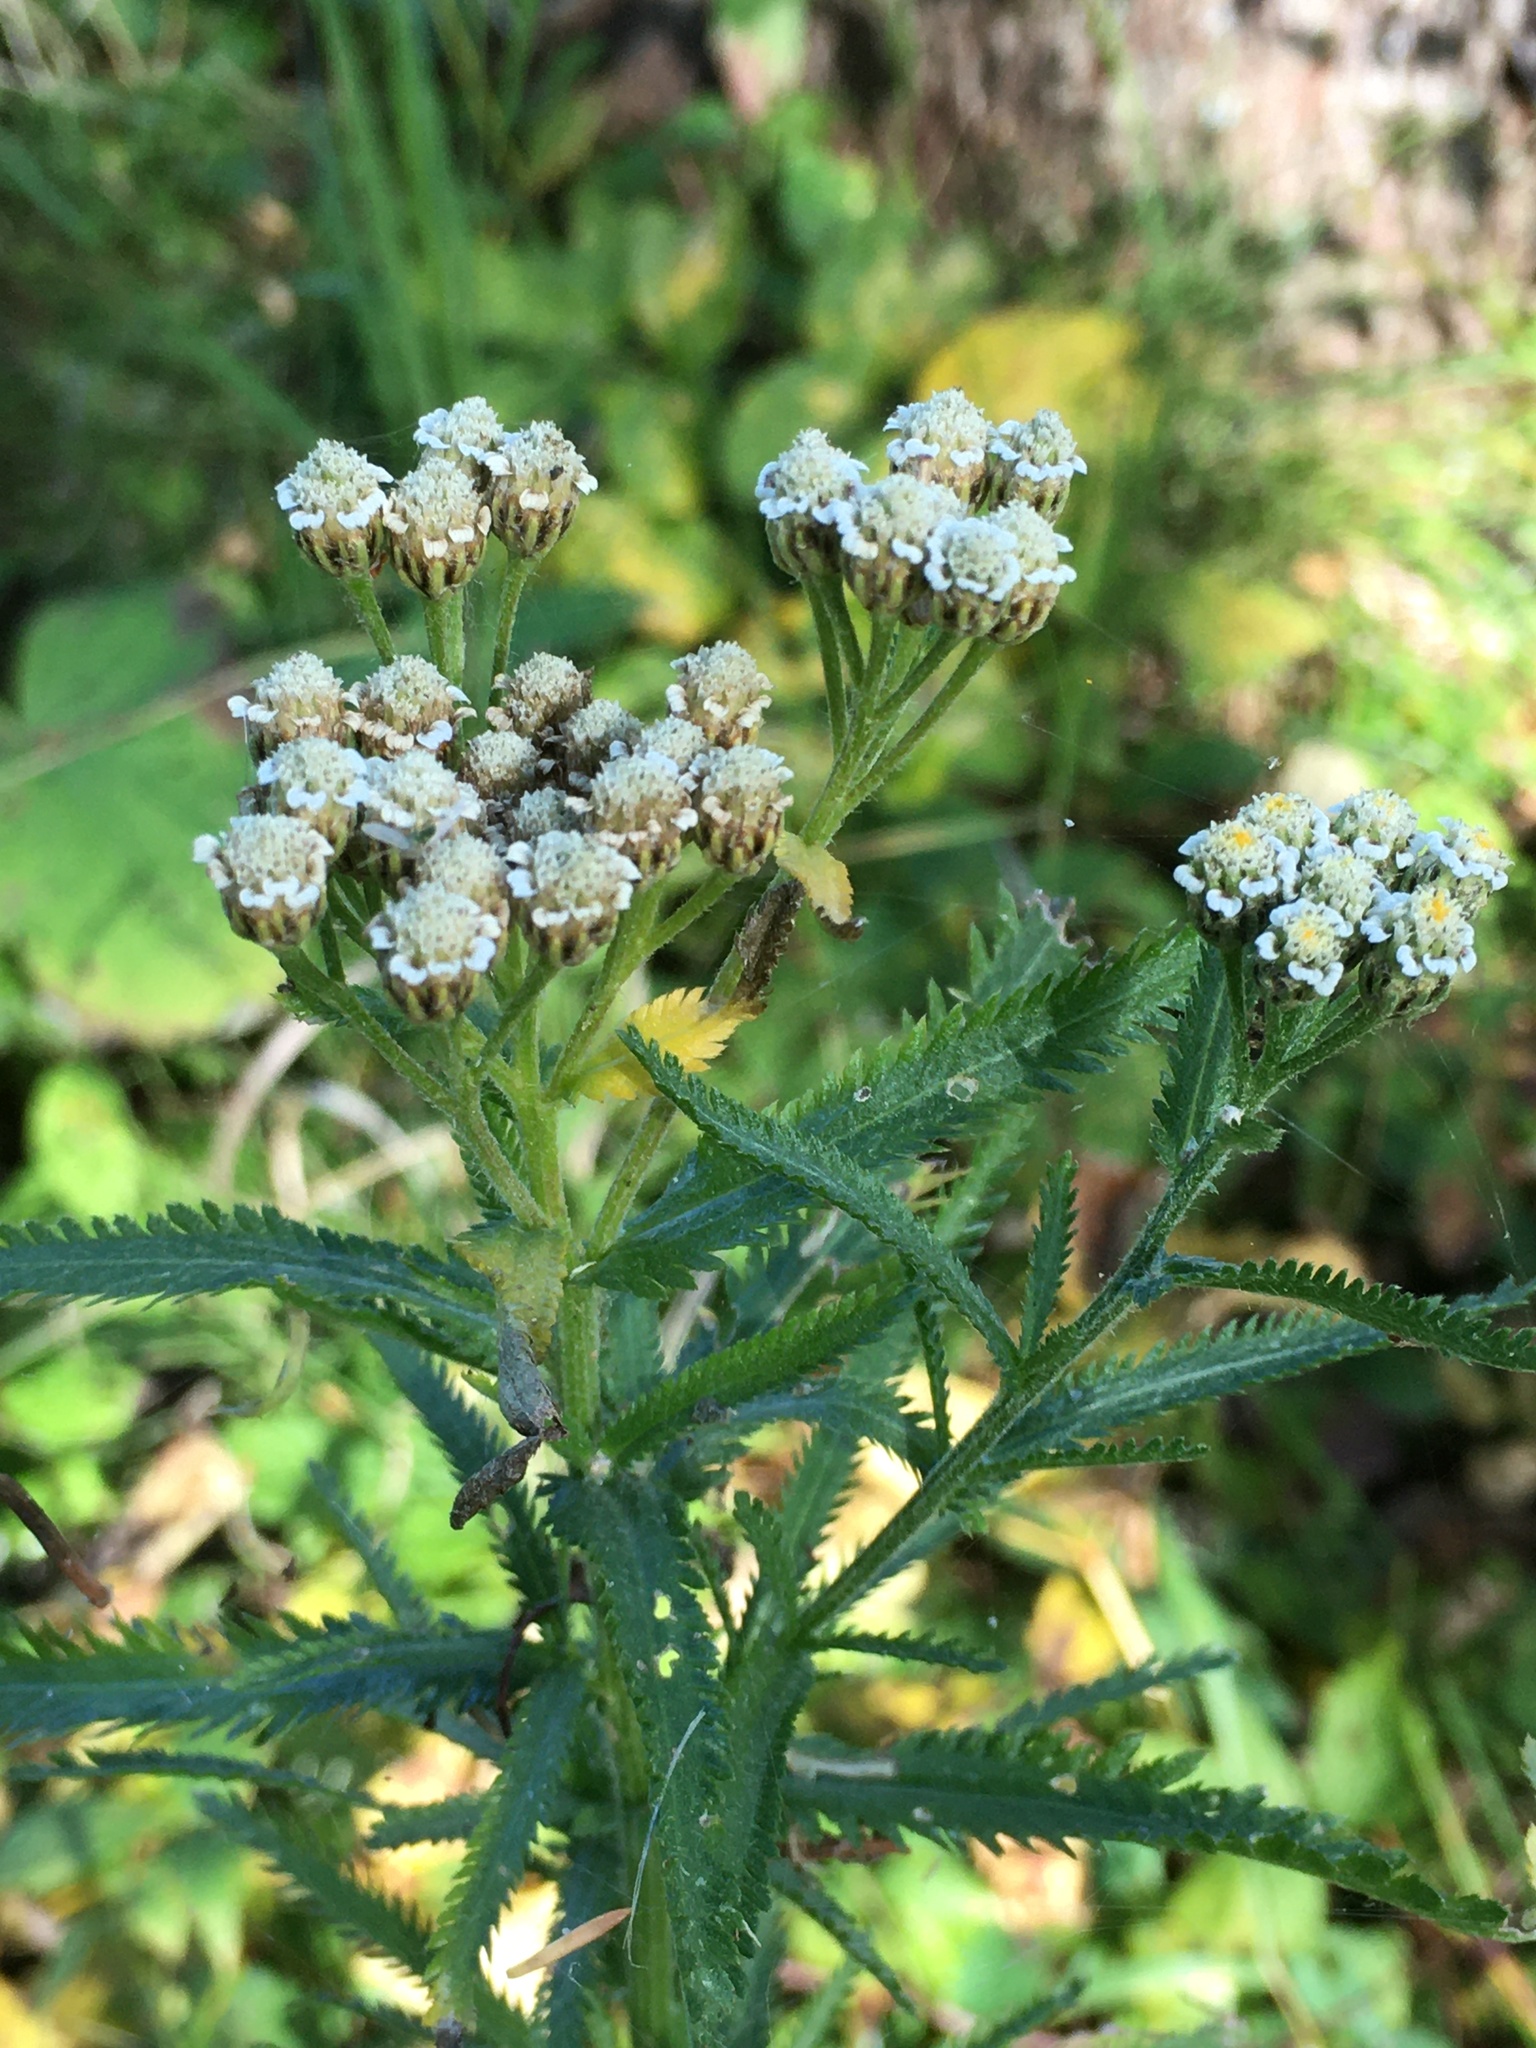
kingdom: Plantae
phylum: Tracheophyta
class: Magnoliopsida
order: Asterales
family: Asteraceae
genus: Achillea
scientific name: Achillea alpina
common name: Siberian yarrow
